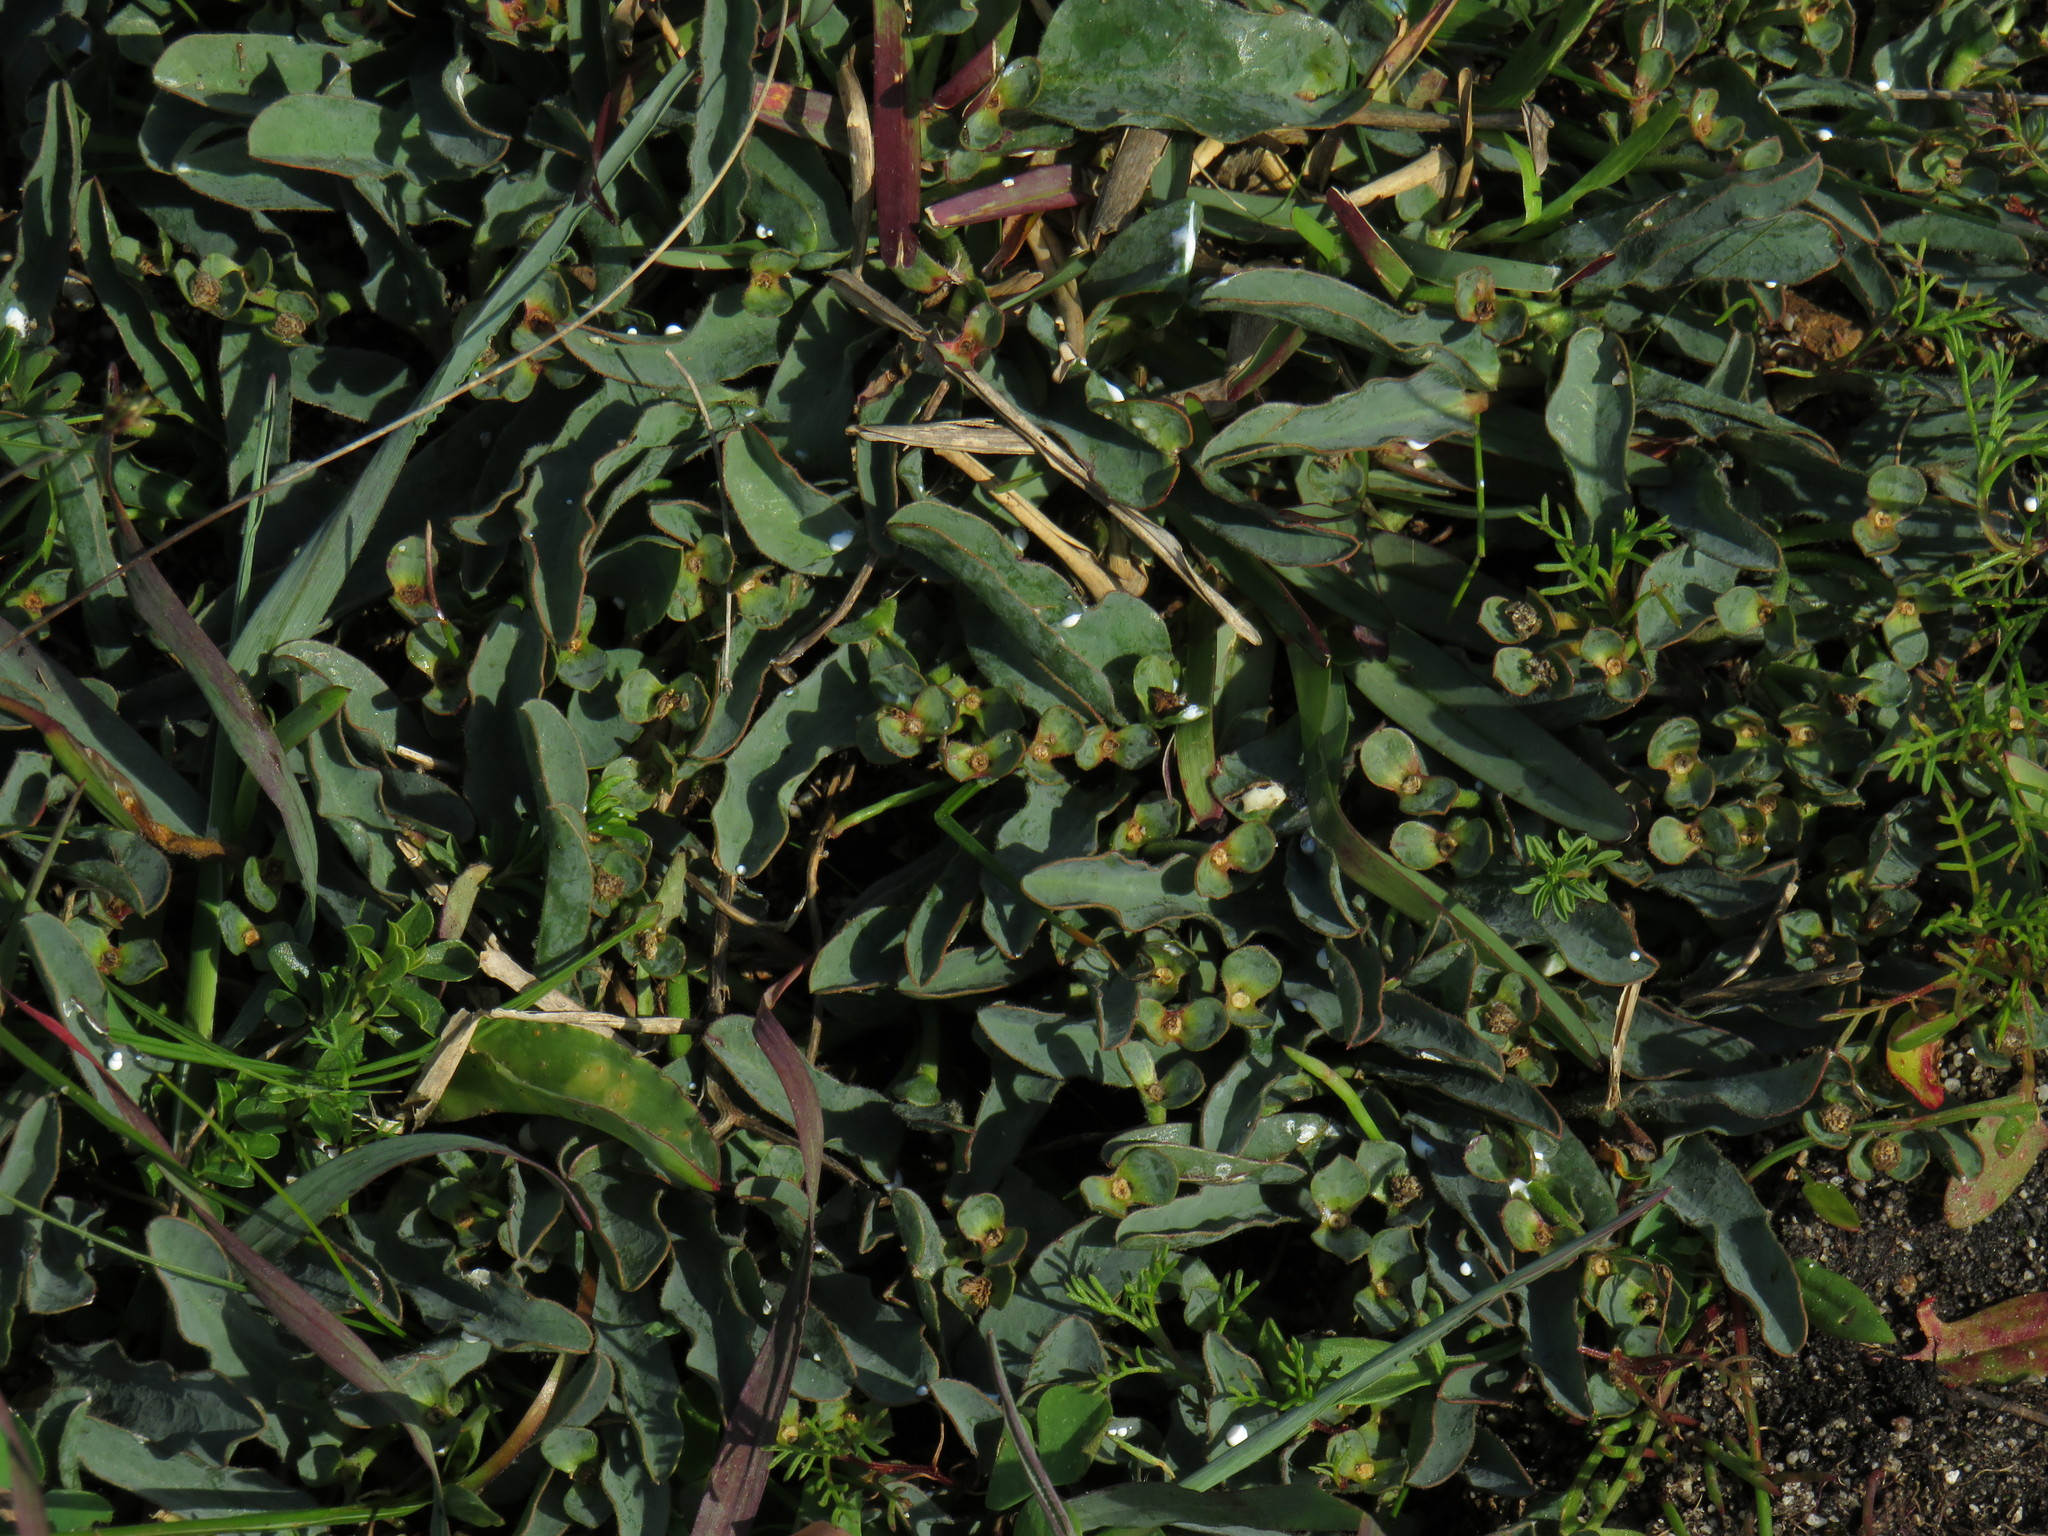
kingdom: Plantae
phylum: Tracheophyta
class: Magnoliopsida
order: Malpighiales
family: Euphorbiaceae
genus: Euphorbia
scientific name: Euphorbia tuberosa
